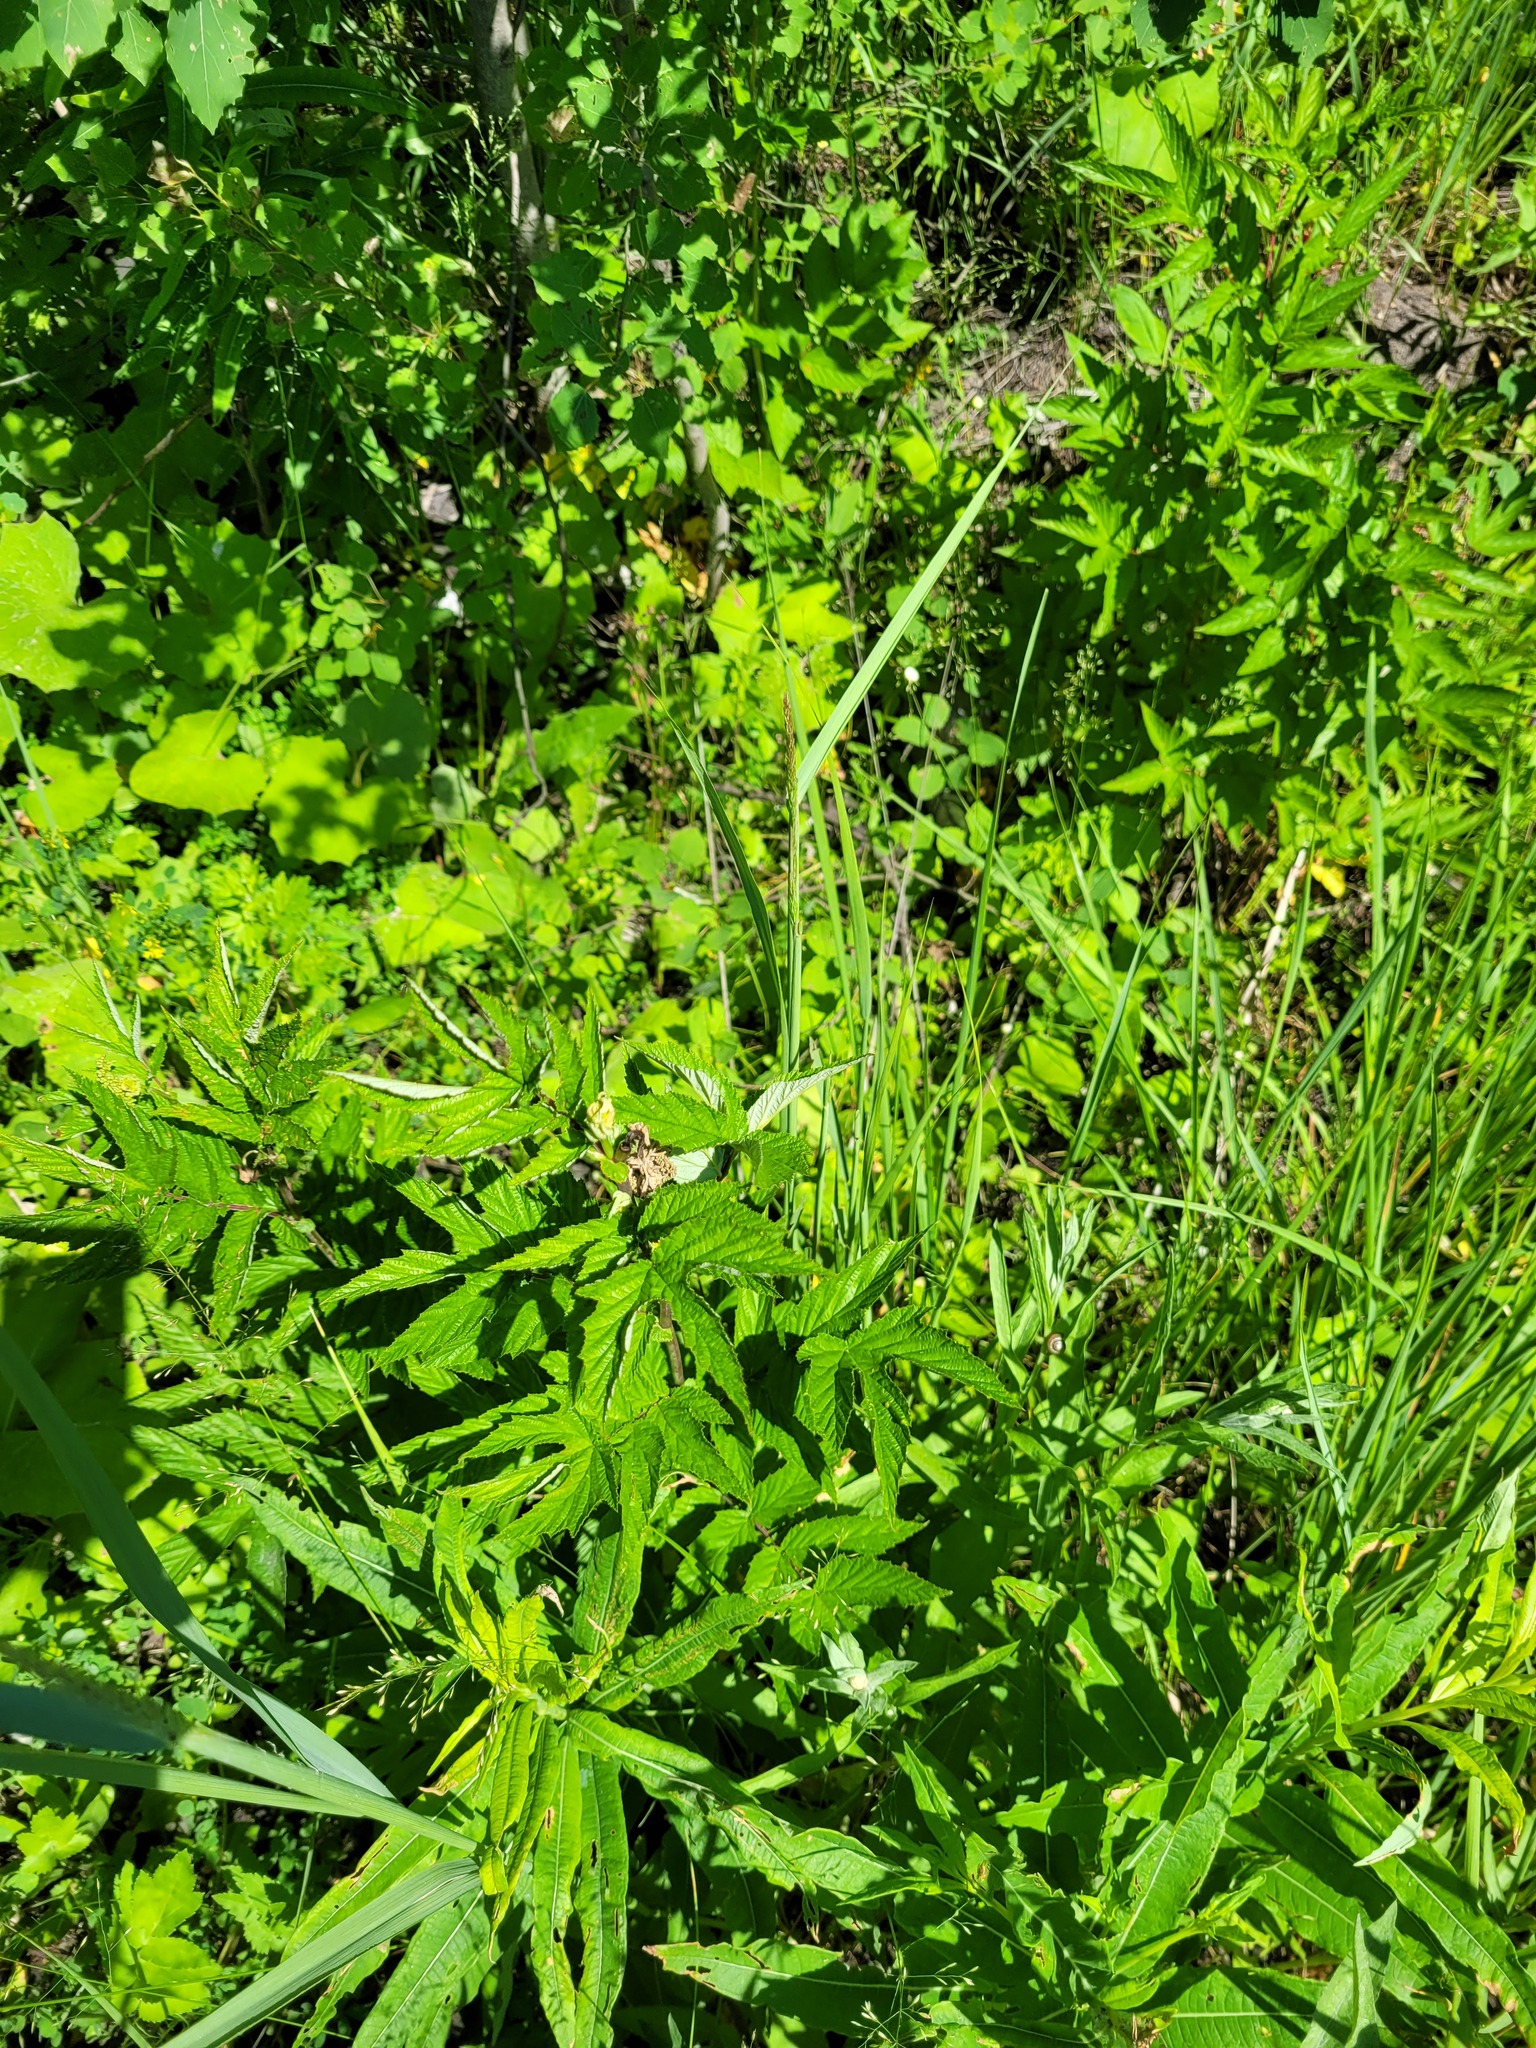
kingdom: Plantae
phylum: Tracheophyta
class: Magnoliopsida
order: Rosales
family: Rosaceae
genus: Filipendula
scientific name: Filipendula ulmaria
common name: Meadowsweet
